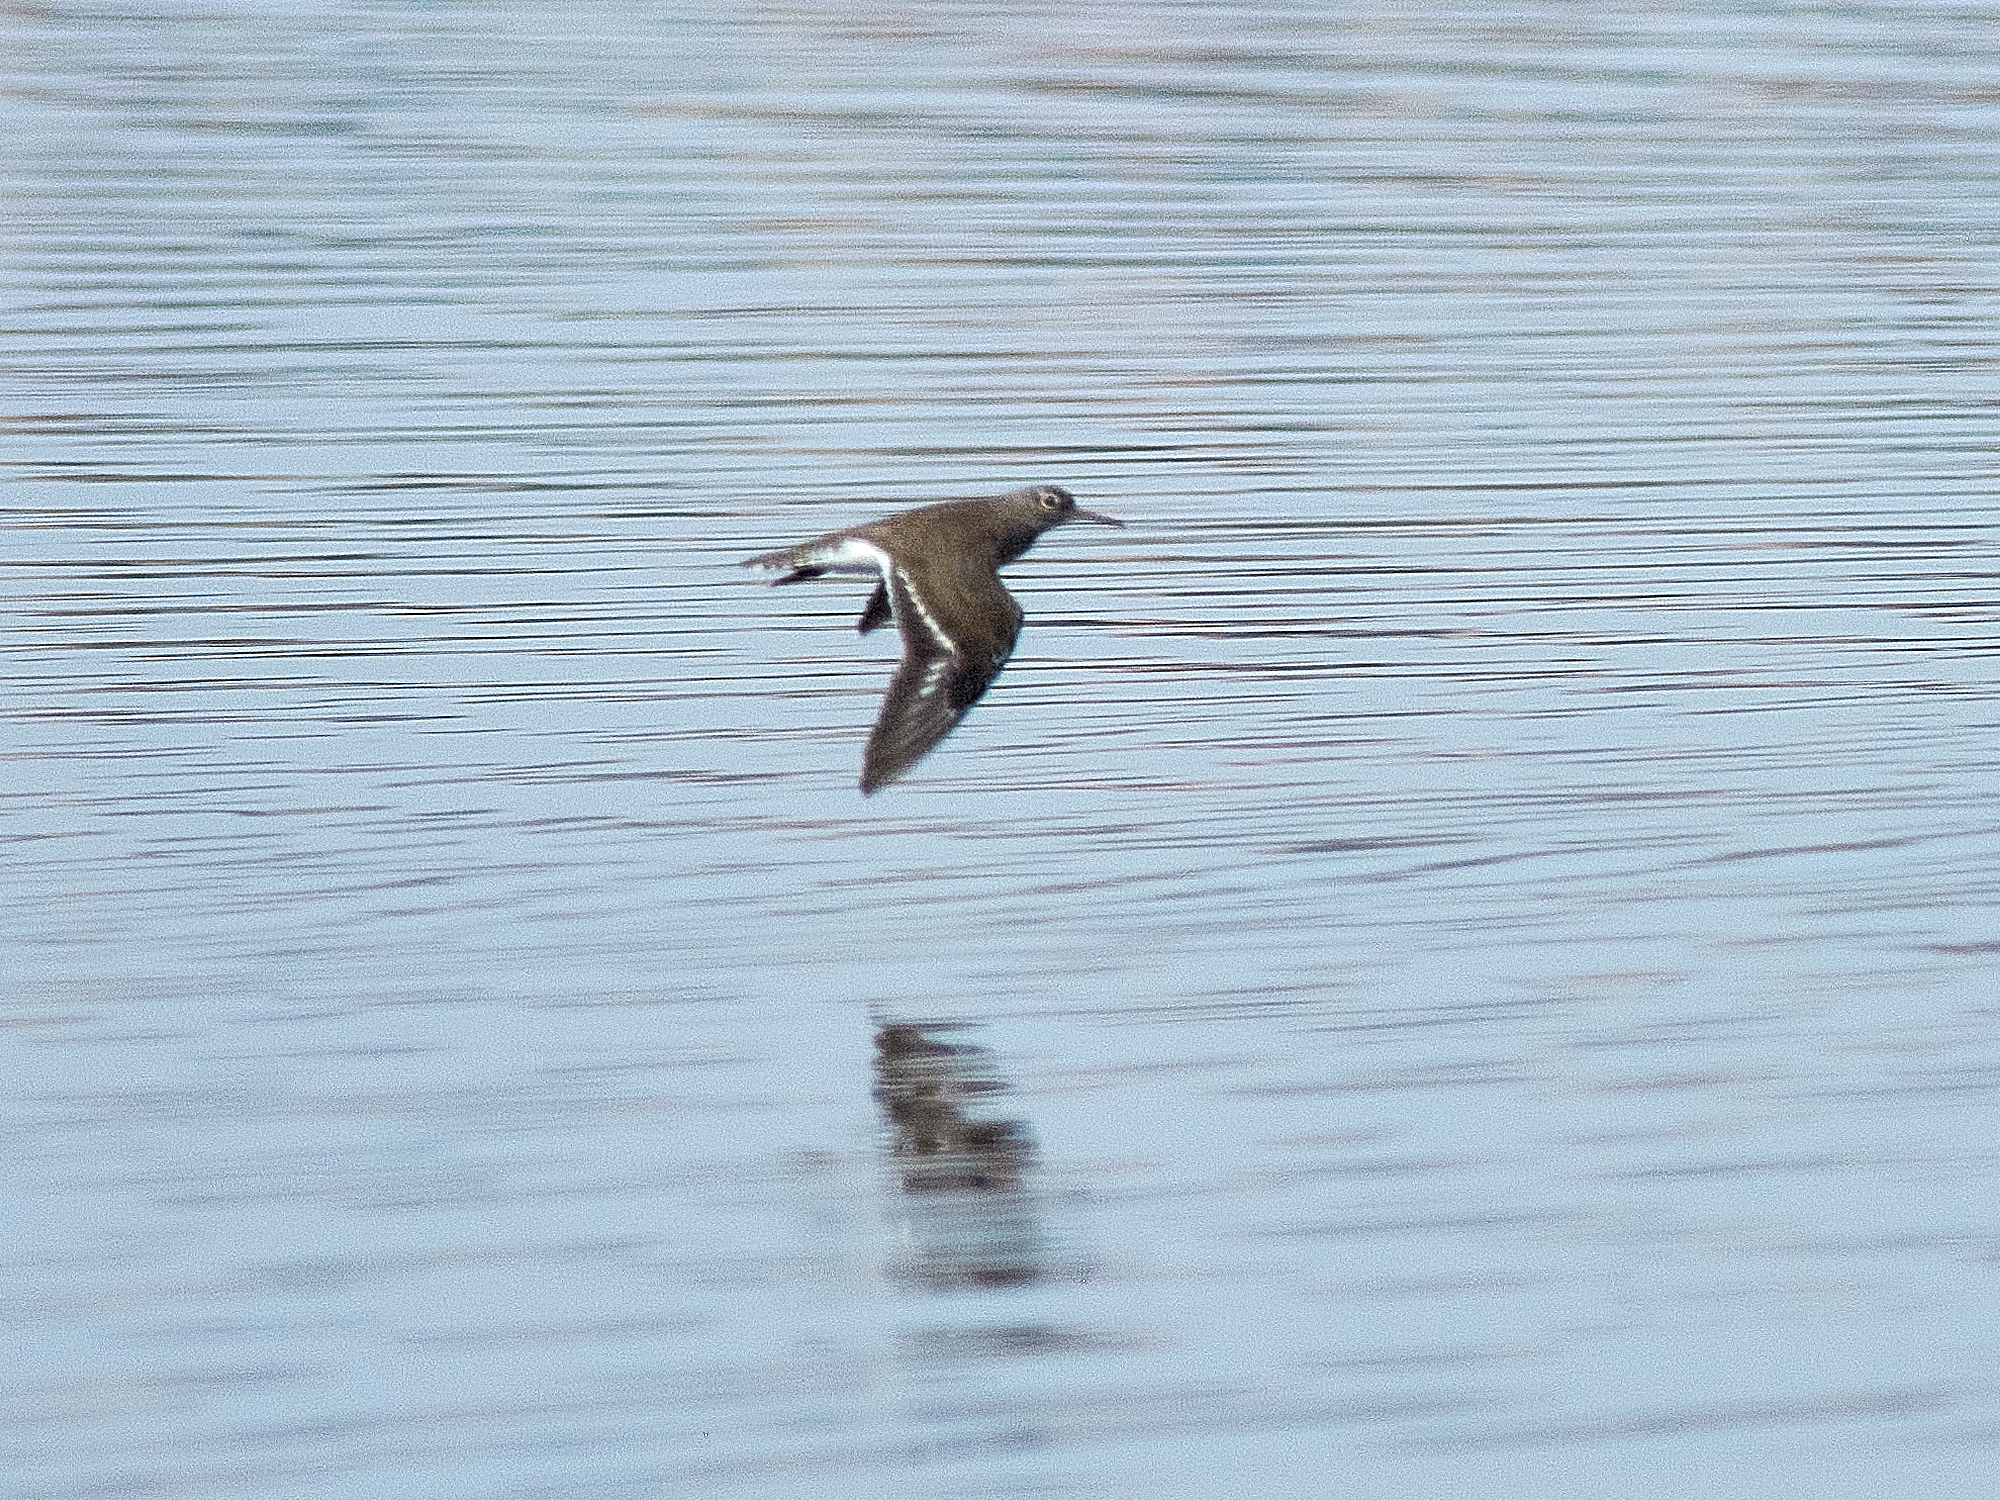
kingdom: Animalia
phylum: Chordata
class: Aves
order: Charadriiformes
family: Scolopacidae
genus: Actitis
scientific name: Actitis hypoleucos
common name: Common sandpiper
